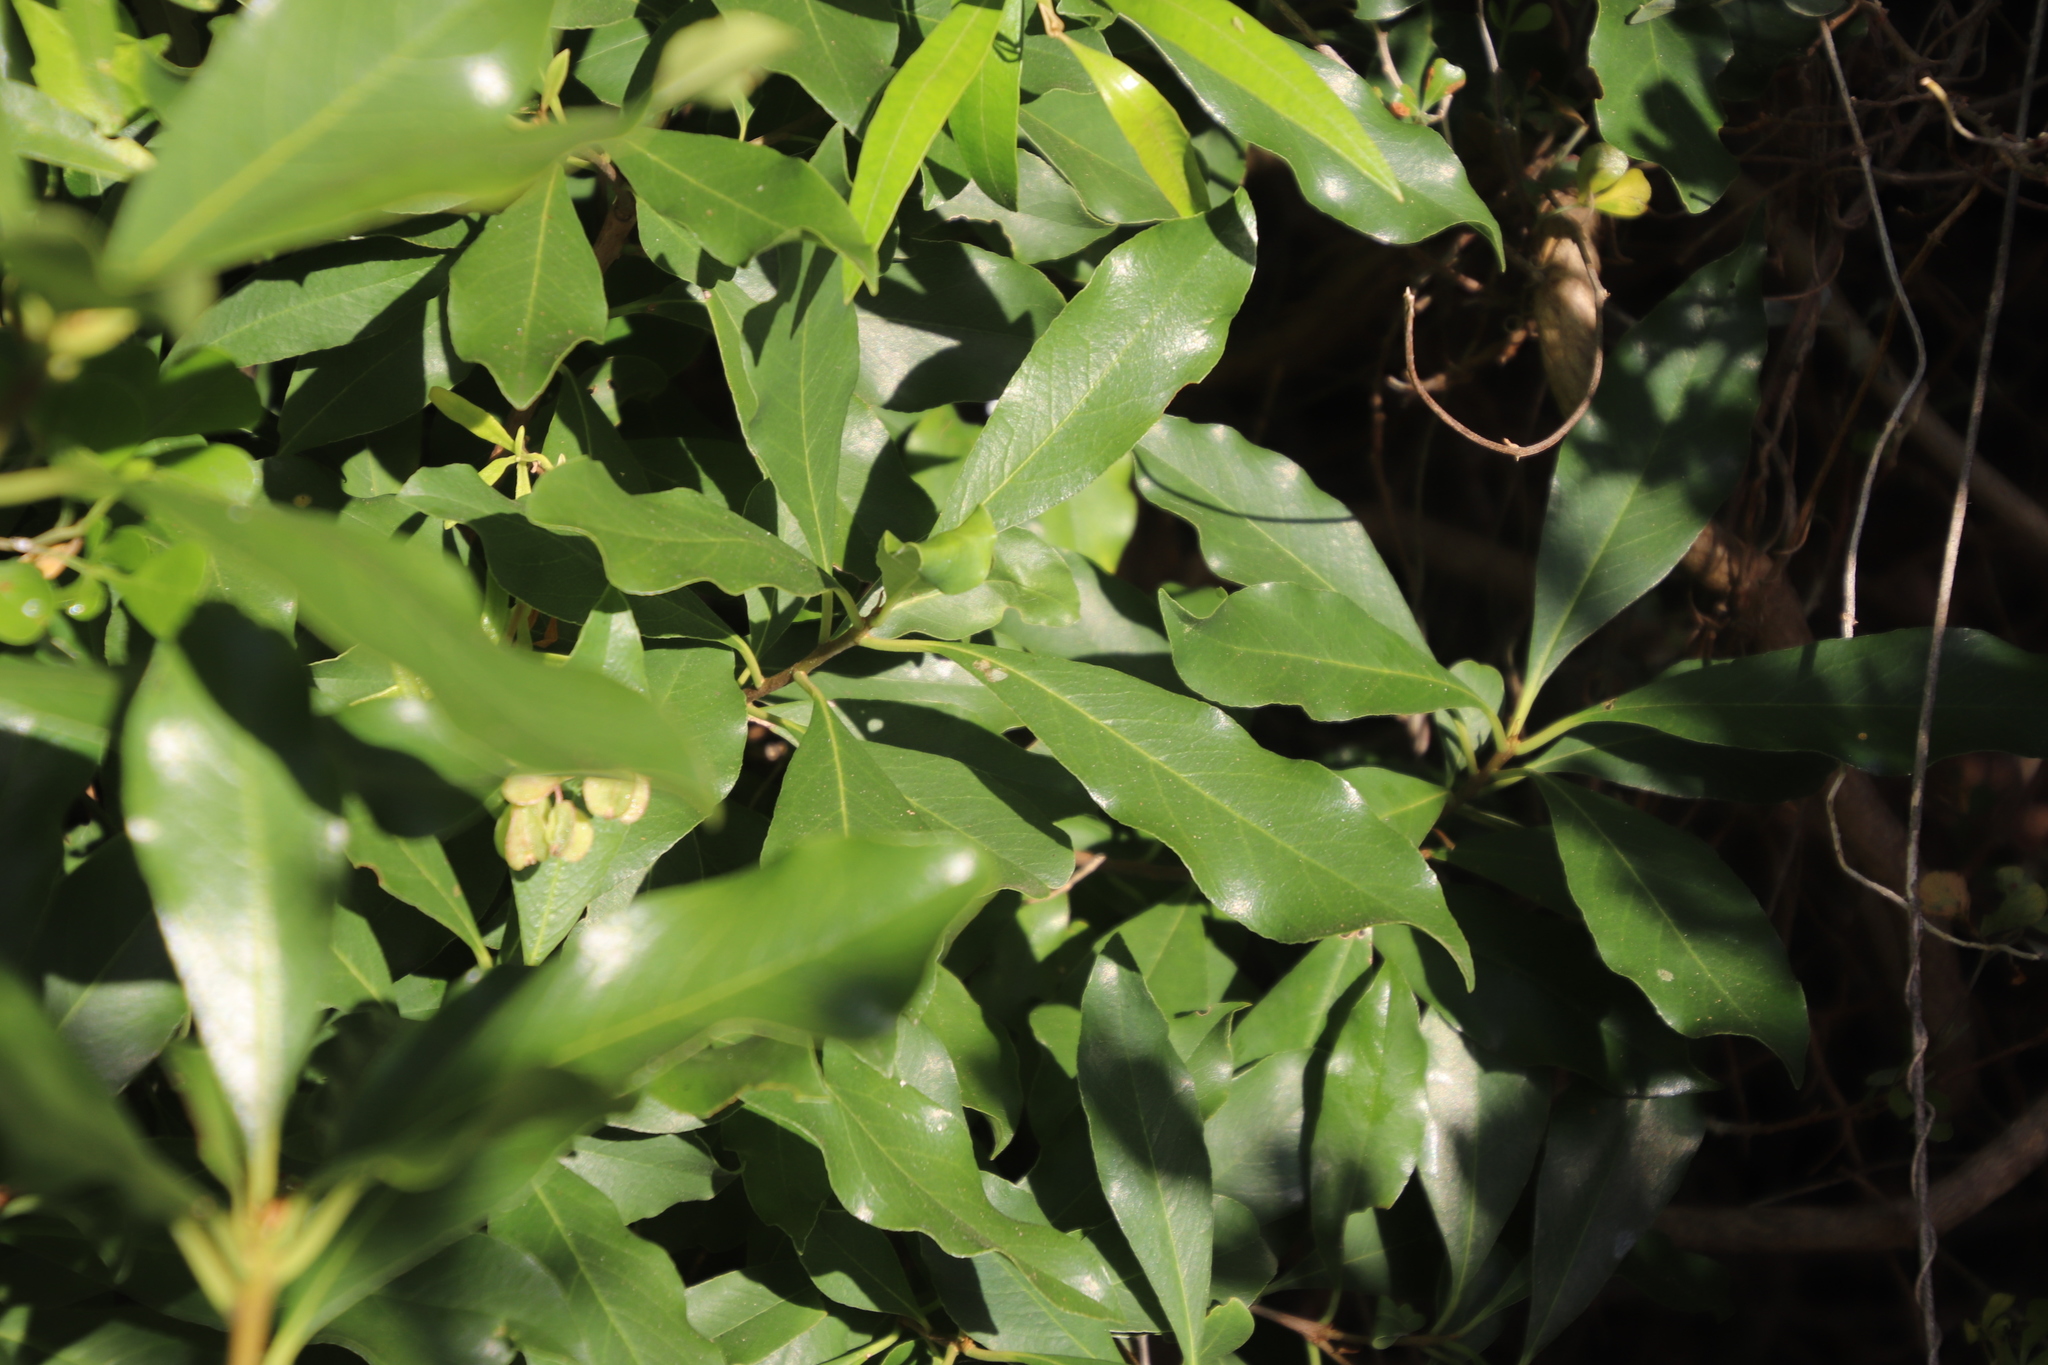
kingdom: Plantae
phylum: Tracheophyta
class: Magnoliopsida
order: Apiales
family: Pittosporaceae
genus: Pittosporum
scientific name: Pittosporum undulatum
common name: Australian cheesewood
